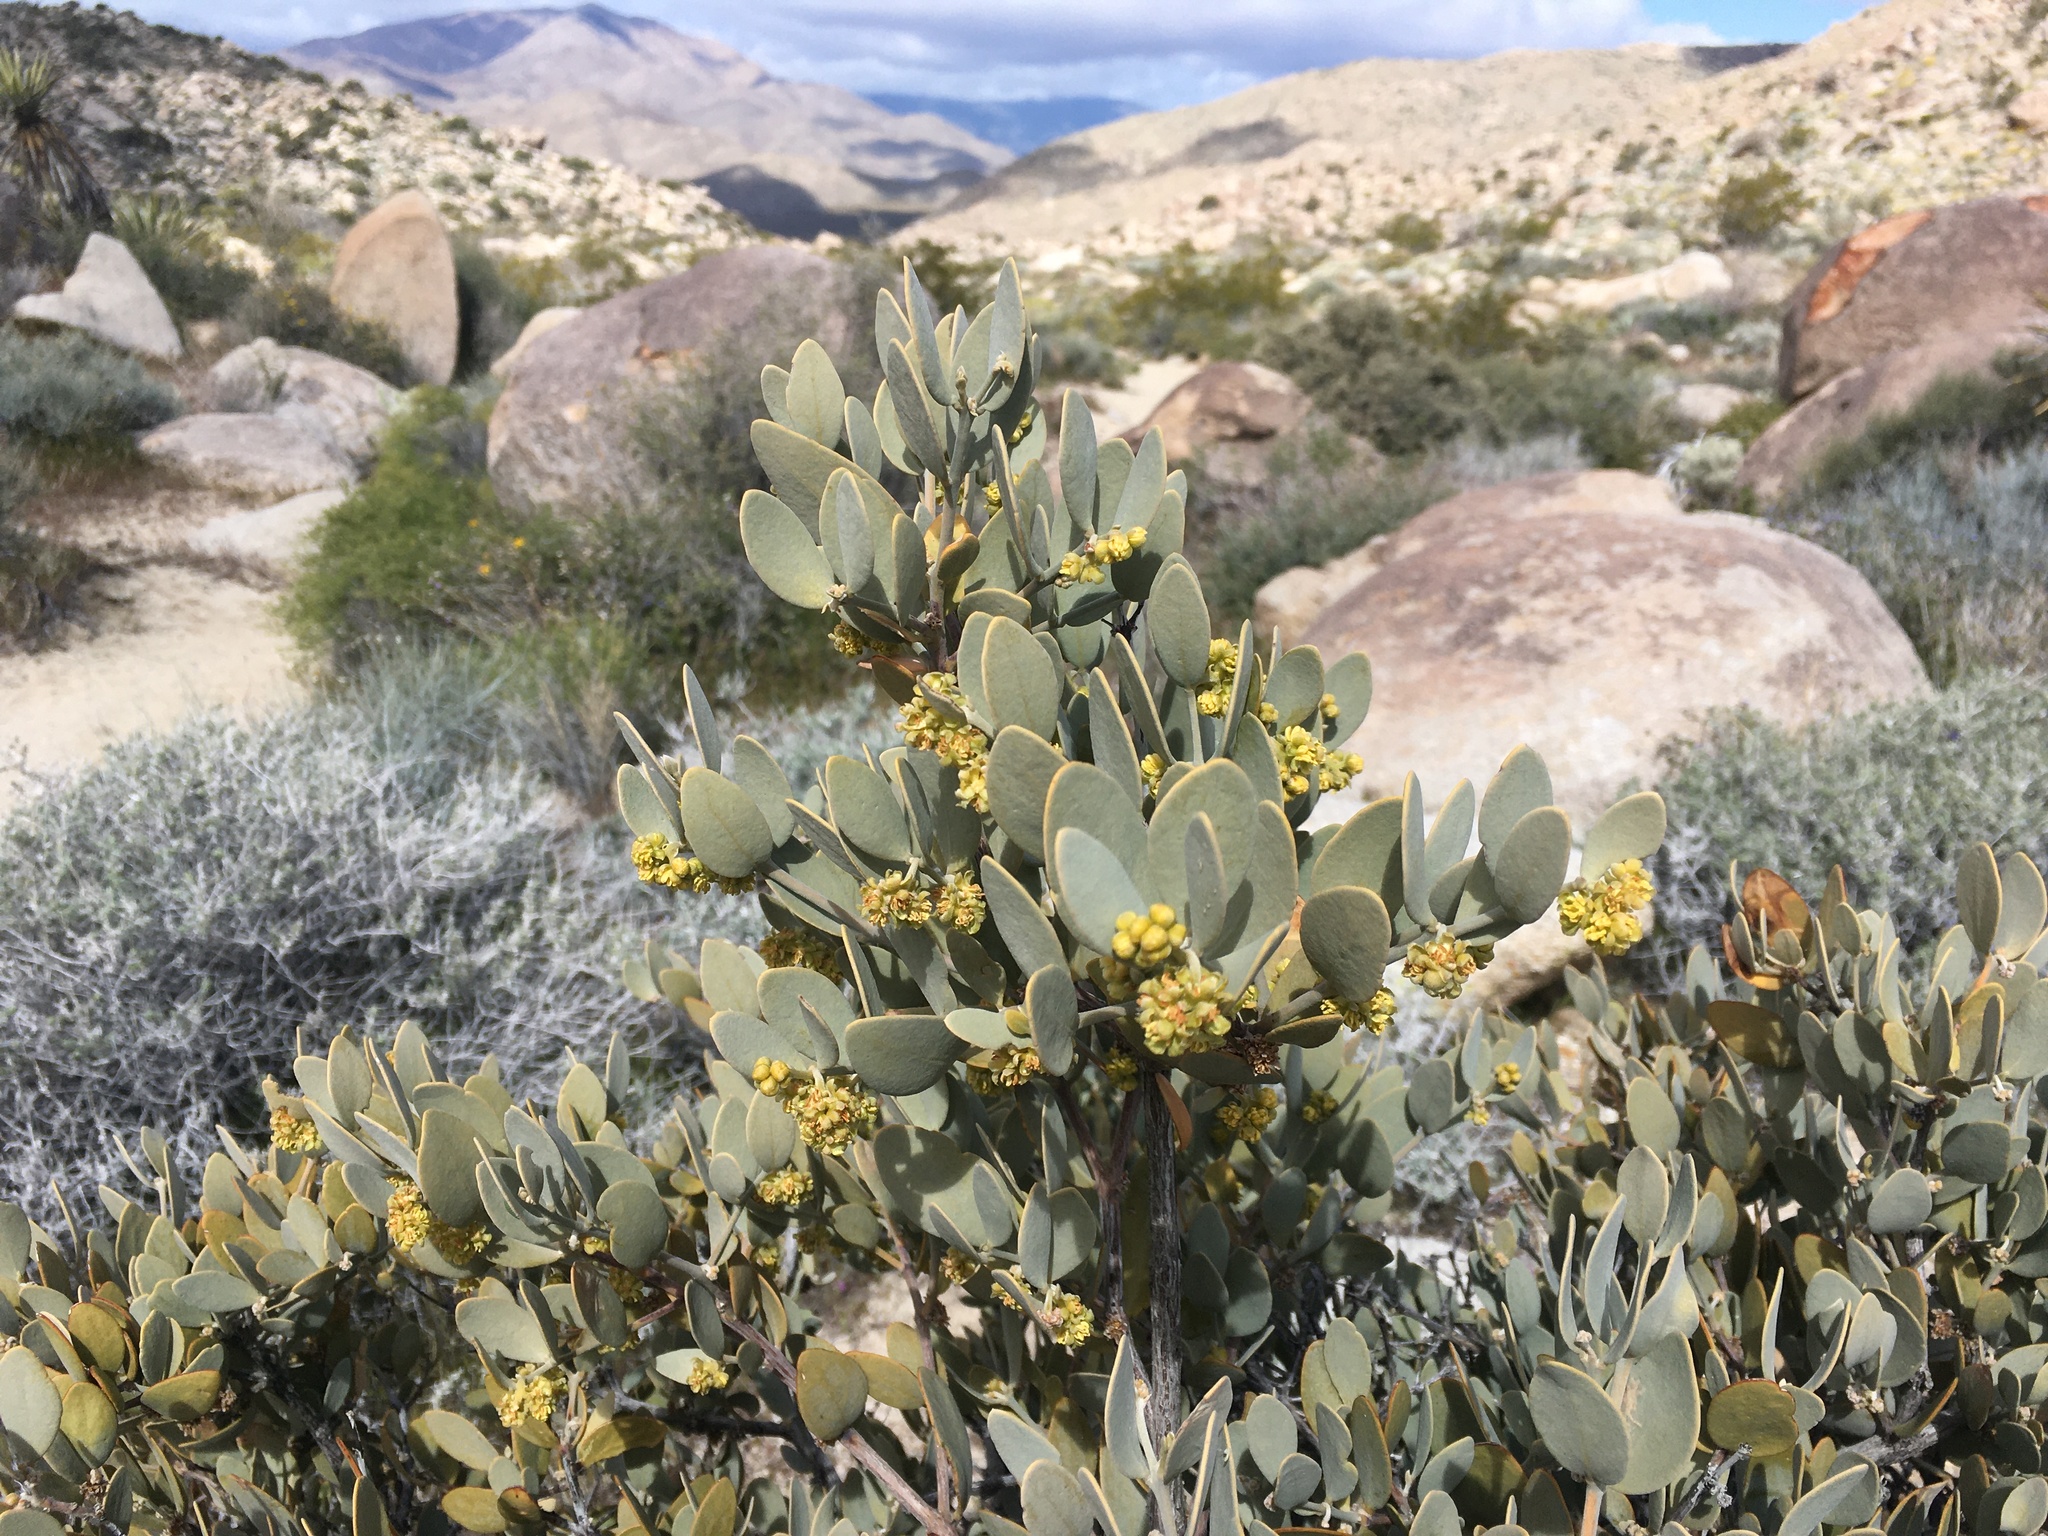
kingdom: Plantae
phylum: Tracheophyta
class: Magnoliopsida
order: Caryophyllales
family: Simmondsiaceae
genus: Simmondsia
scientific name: Simmondsia chinensis
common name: Jojoba
